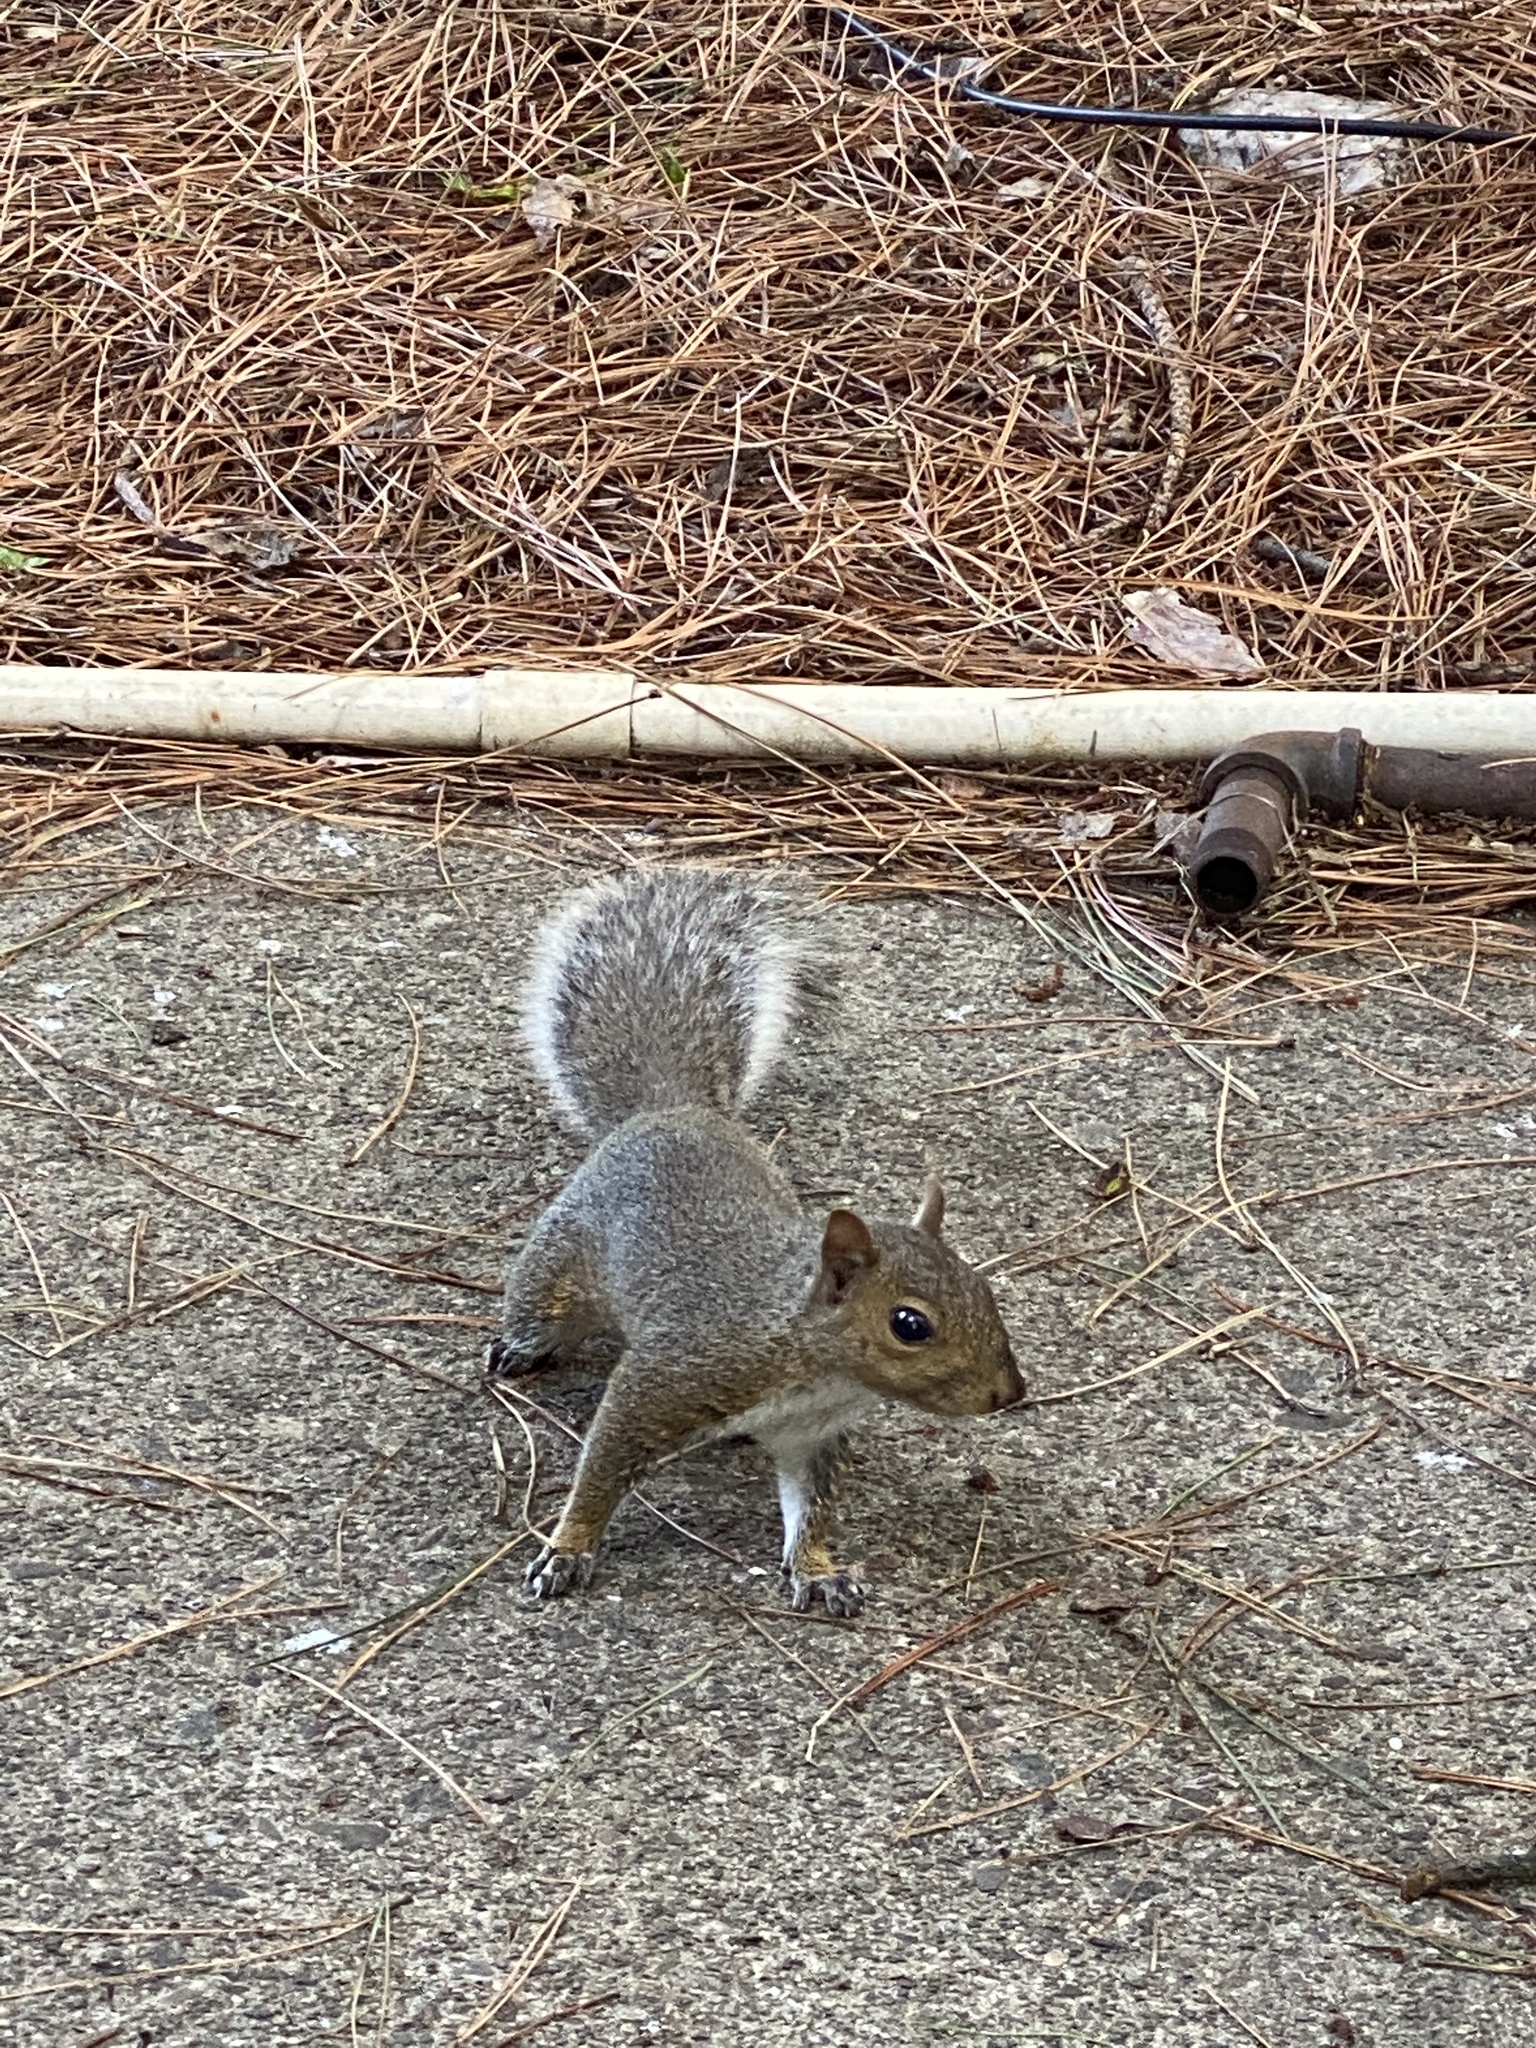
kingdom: Animalia
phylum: Chordata
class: Mammalia
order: Rodentia
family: Sciuridae
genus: Sciurus
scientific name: Sciurus carolinensis
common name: Eastern gray squirrel
